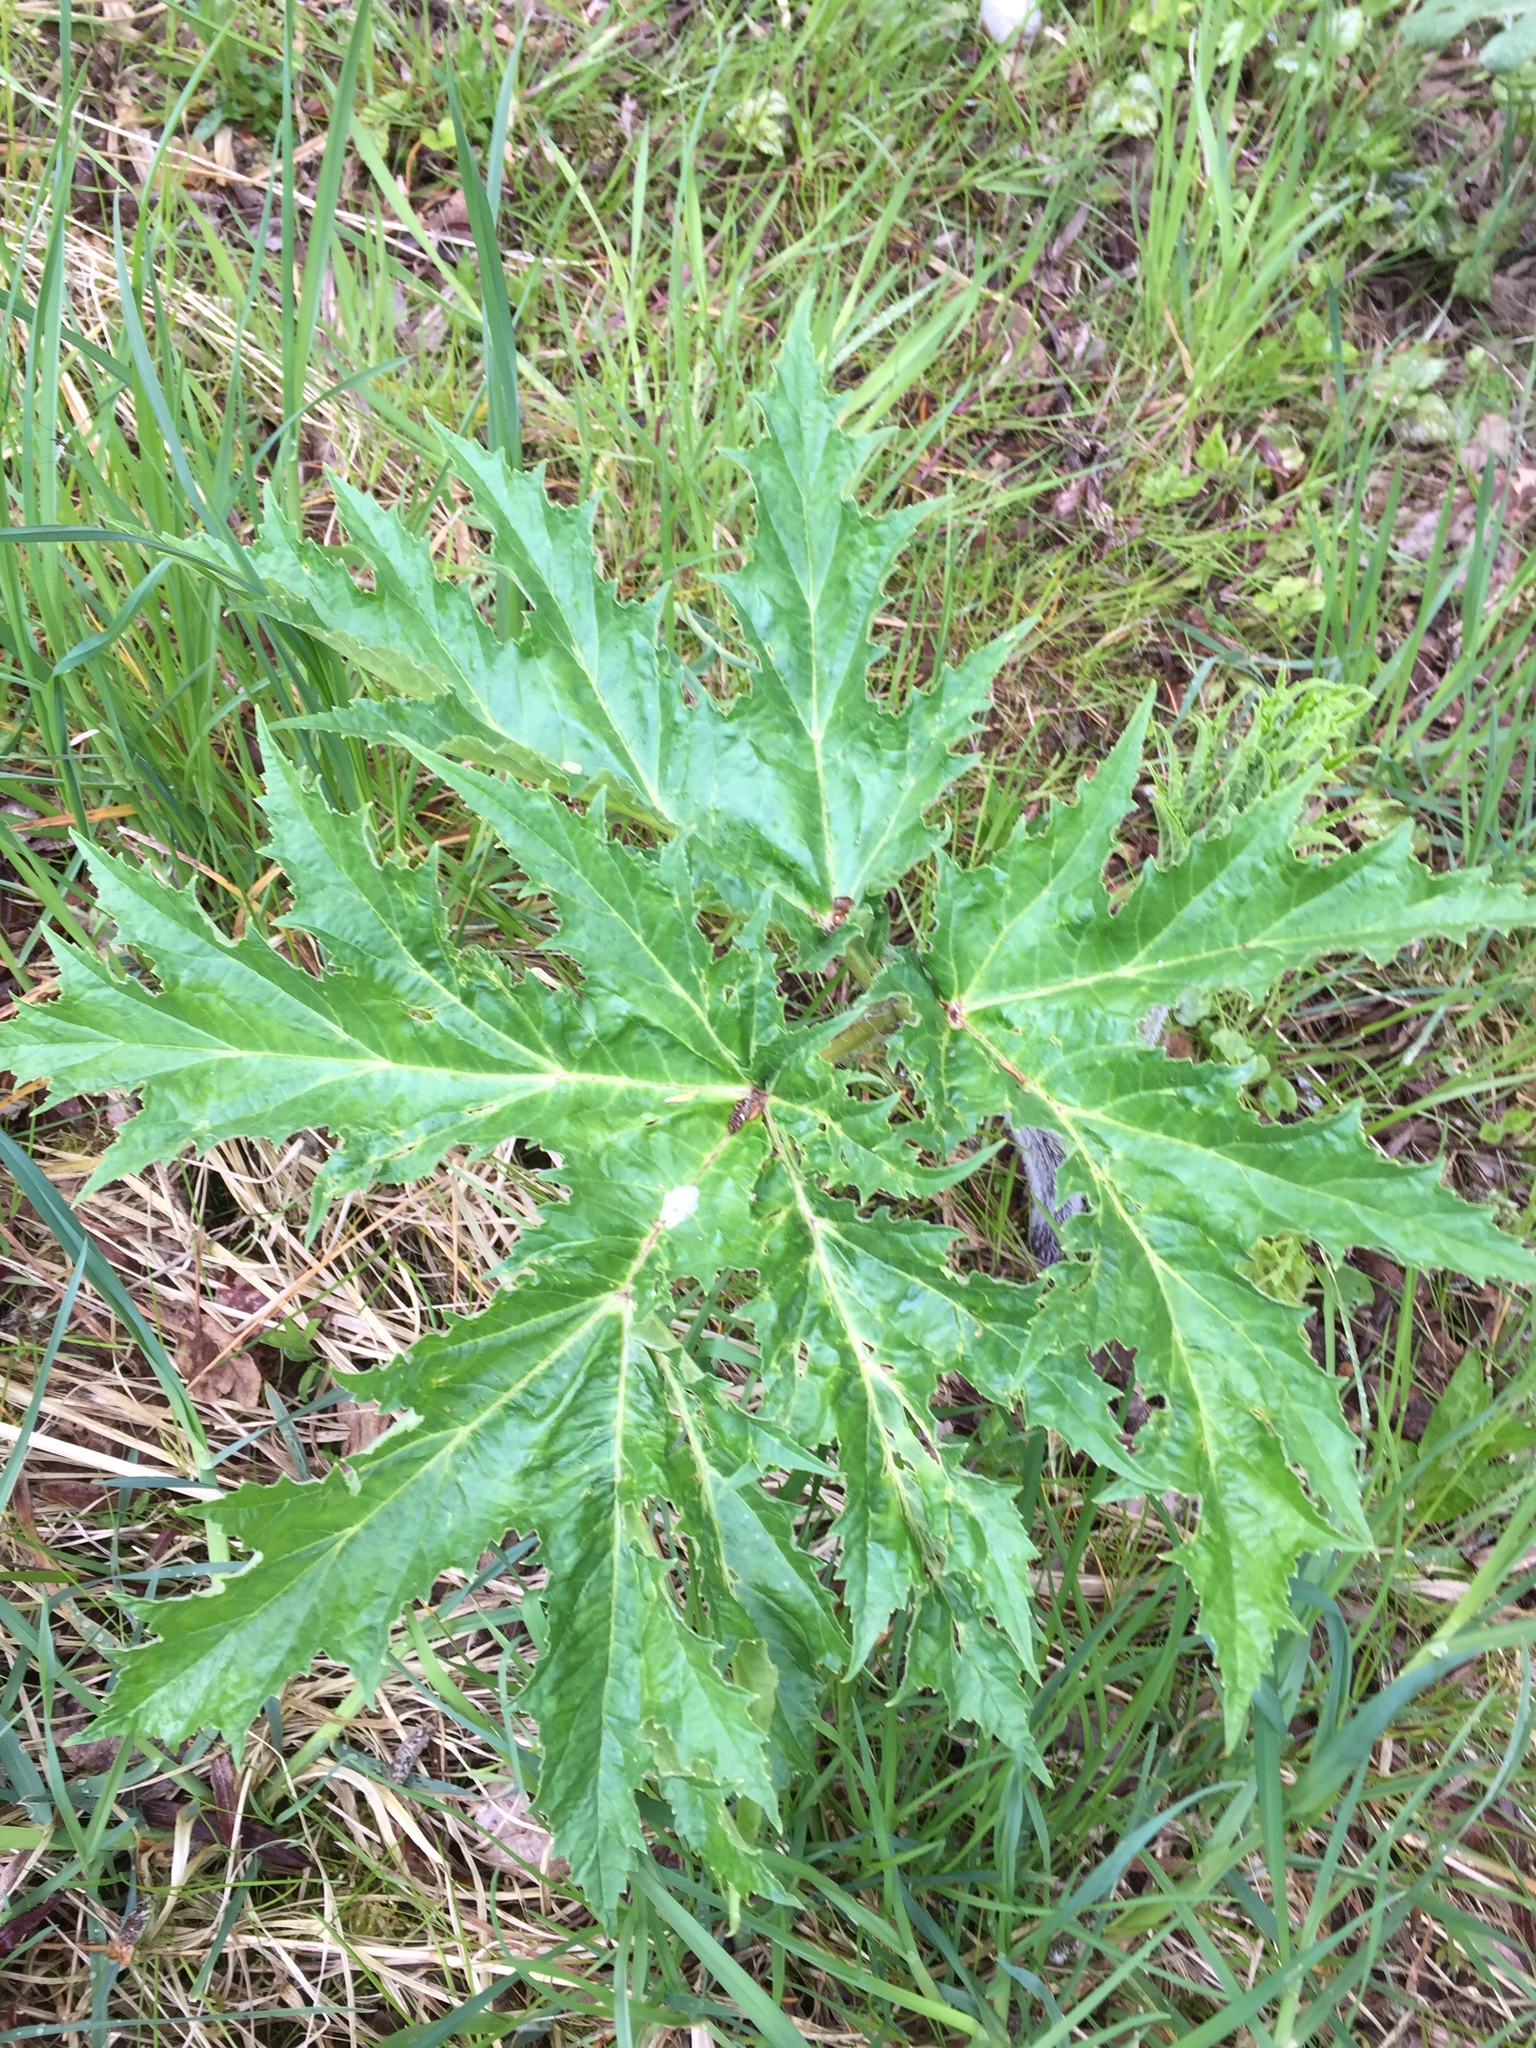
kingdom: Plantae
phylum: Tracheophyta
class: Magnoliopsida
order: Apiales
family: Apiaceae
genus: Heracleum
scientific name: Heracleum mantegazzianum
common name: Giant hogweed
